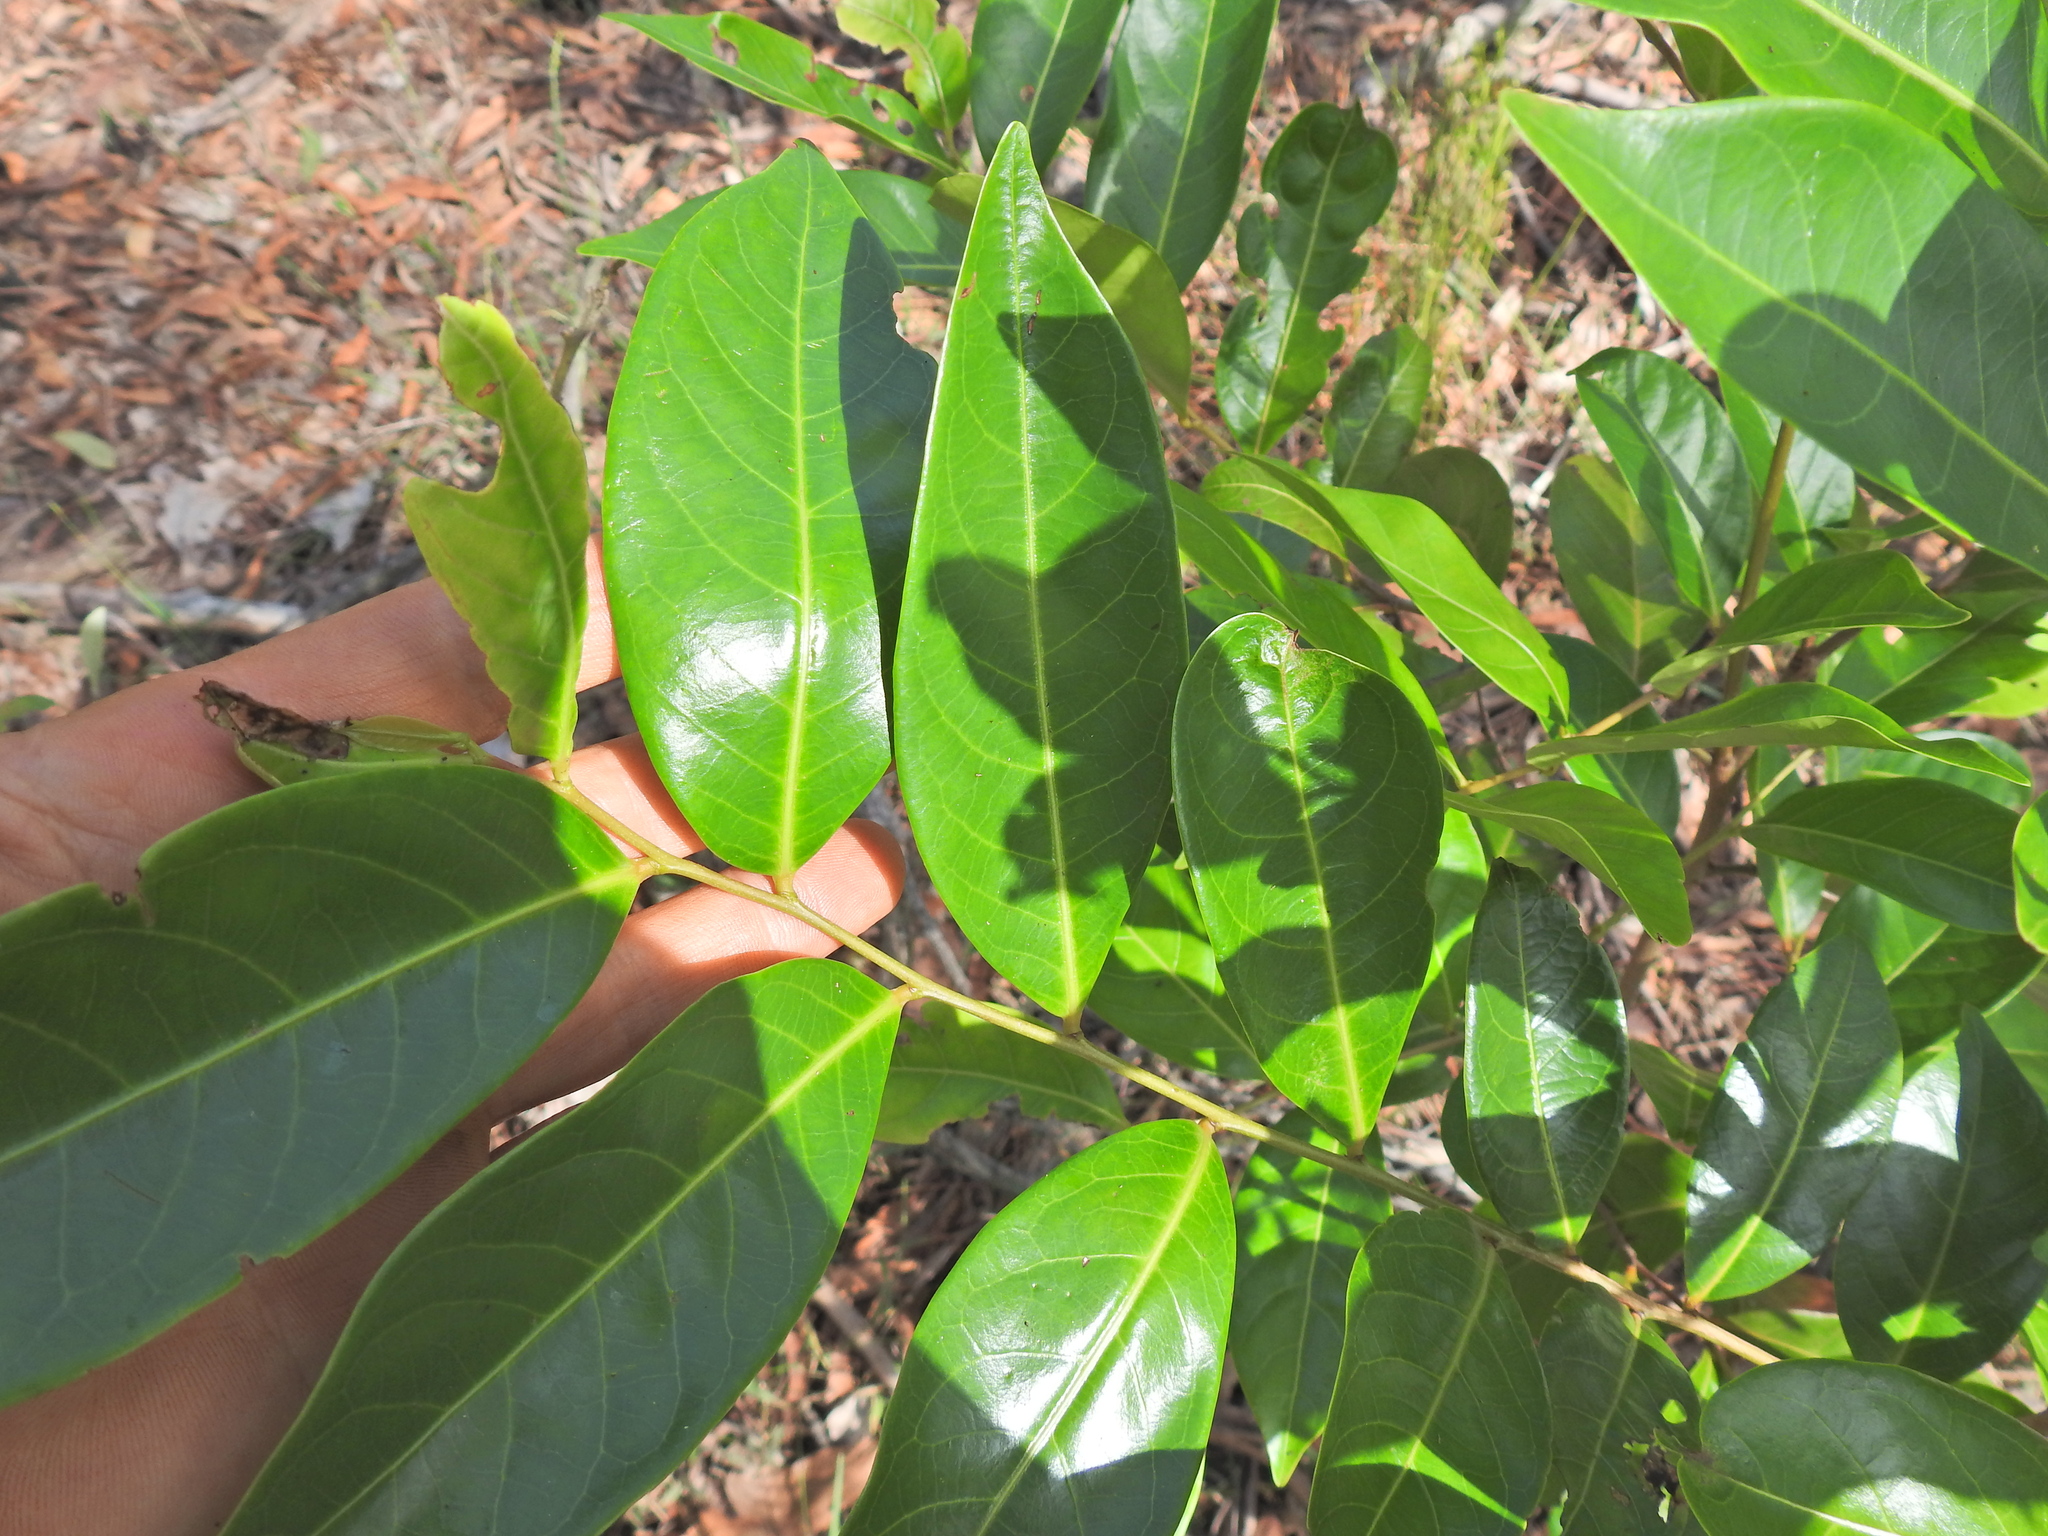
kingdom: Plantae
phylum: Tracheophyta
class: Magnoliopsida
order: Malpighiales
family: Phyllanthaceae
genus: Glochidion
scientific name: Glochidion ferdinandi
